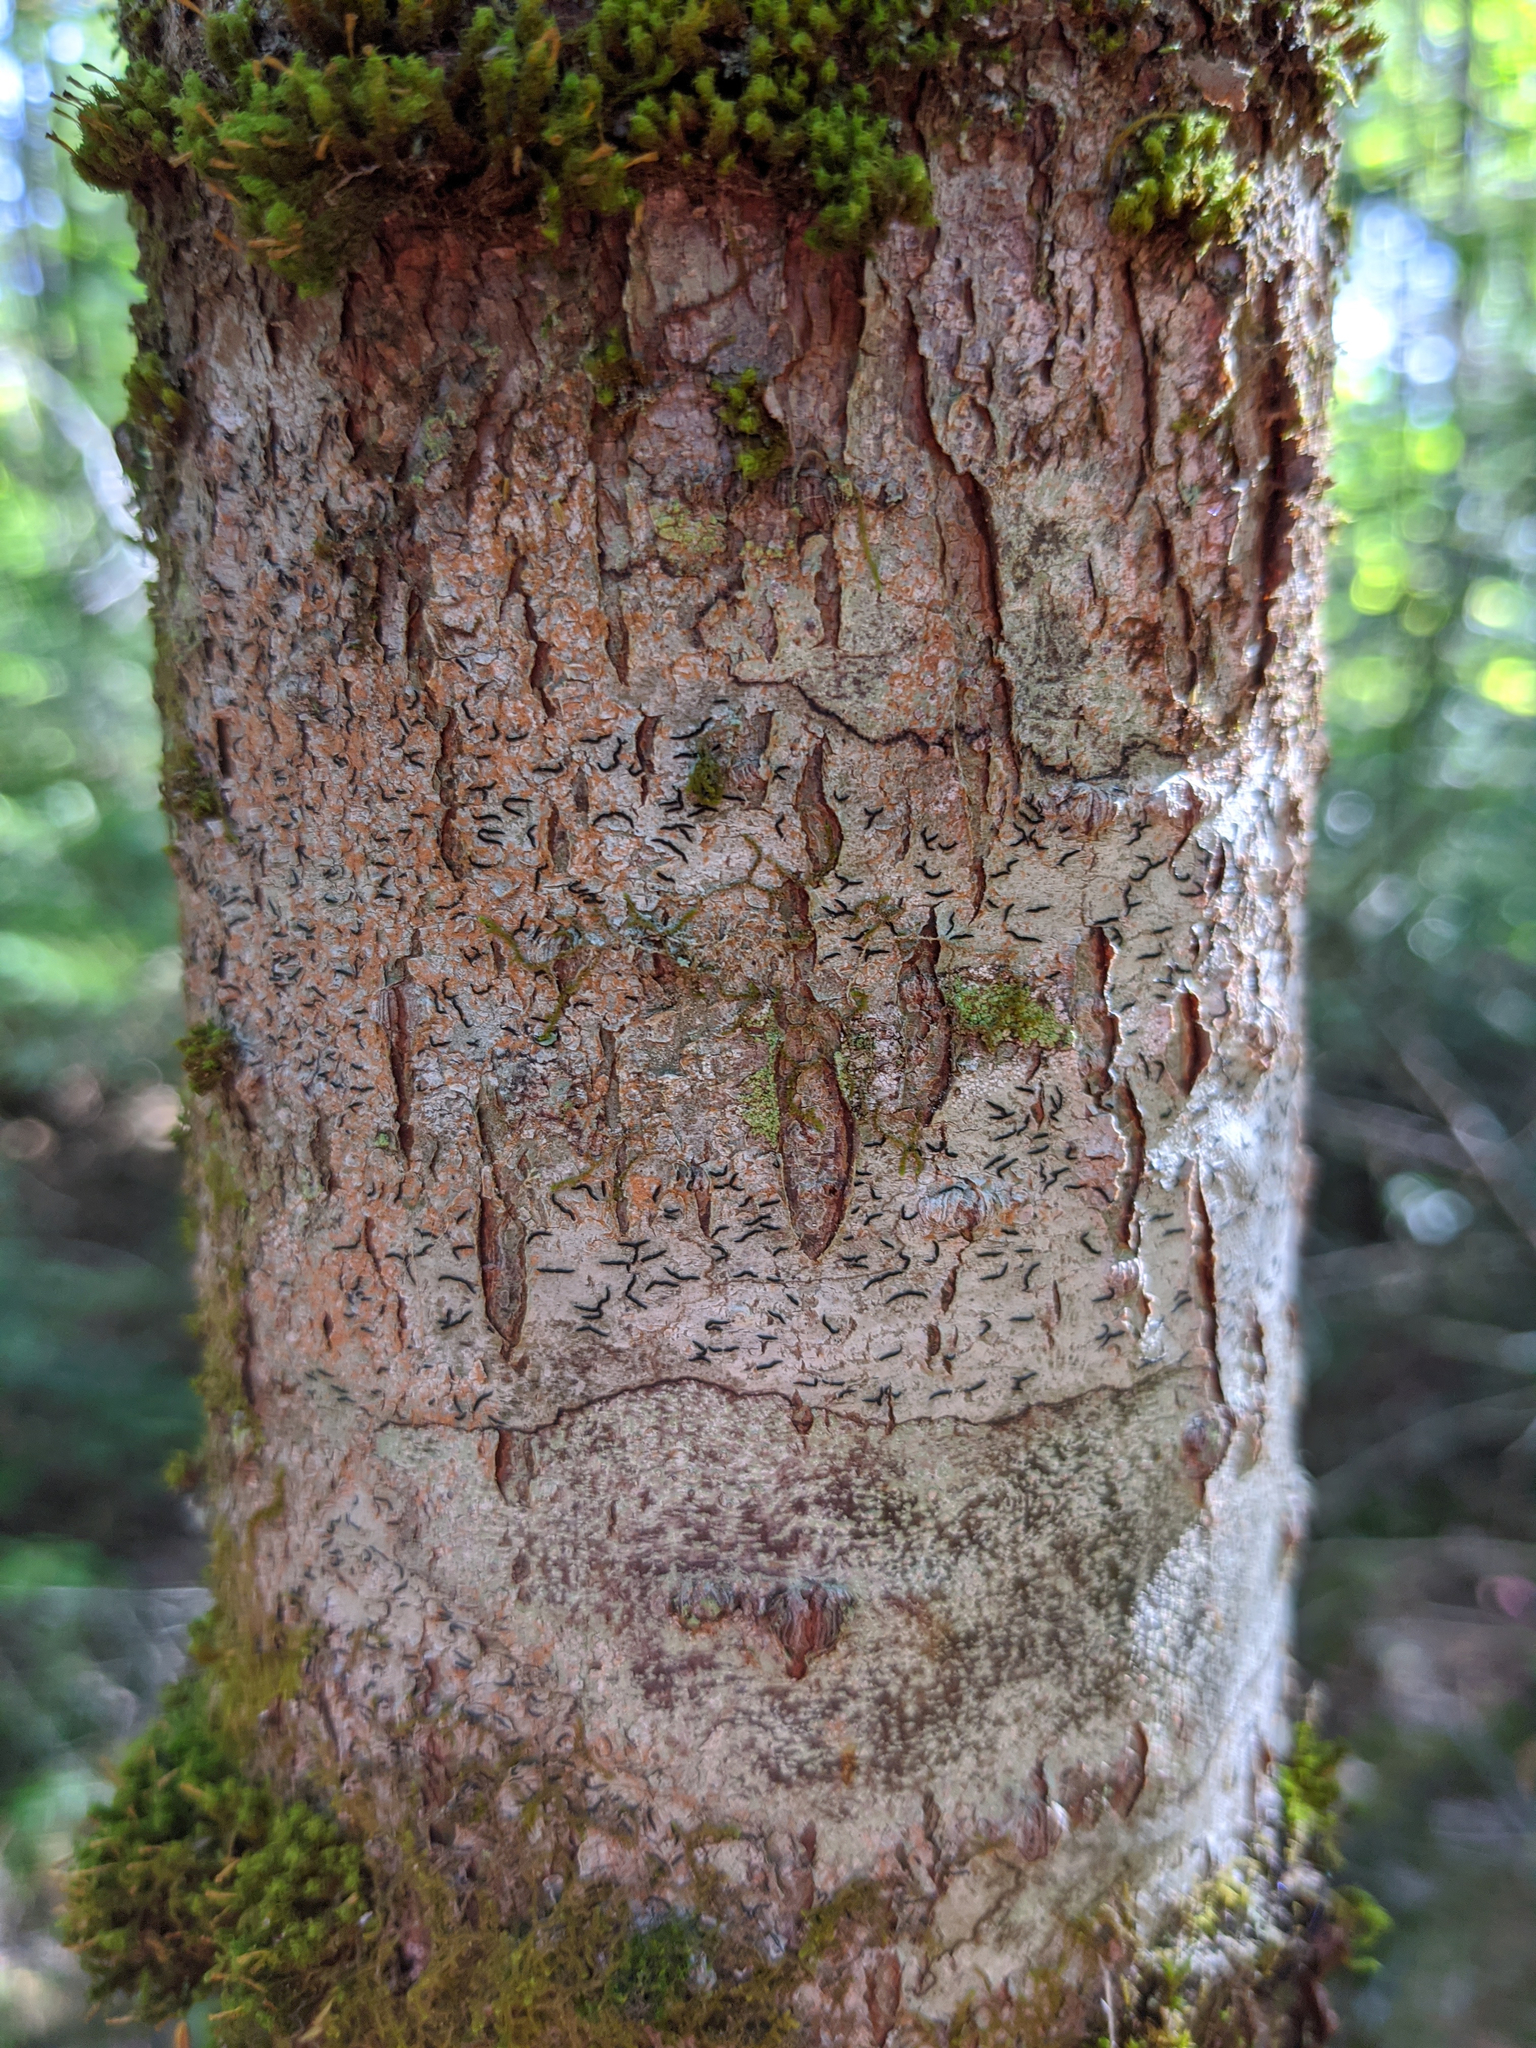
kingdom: Fungi
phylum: Ascomycota
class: Lecanoromycetes
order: Ostropales
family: Graphidaceae
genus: Graphis
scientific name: Graphis scripta
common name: Script lichen
